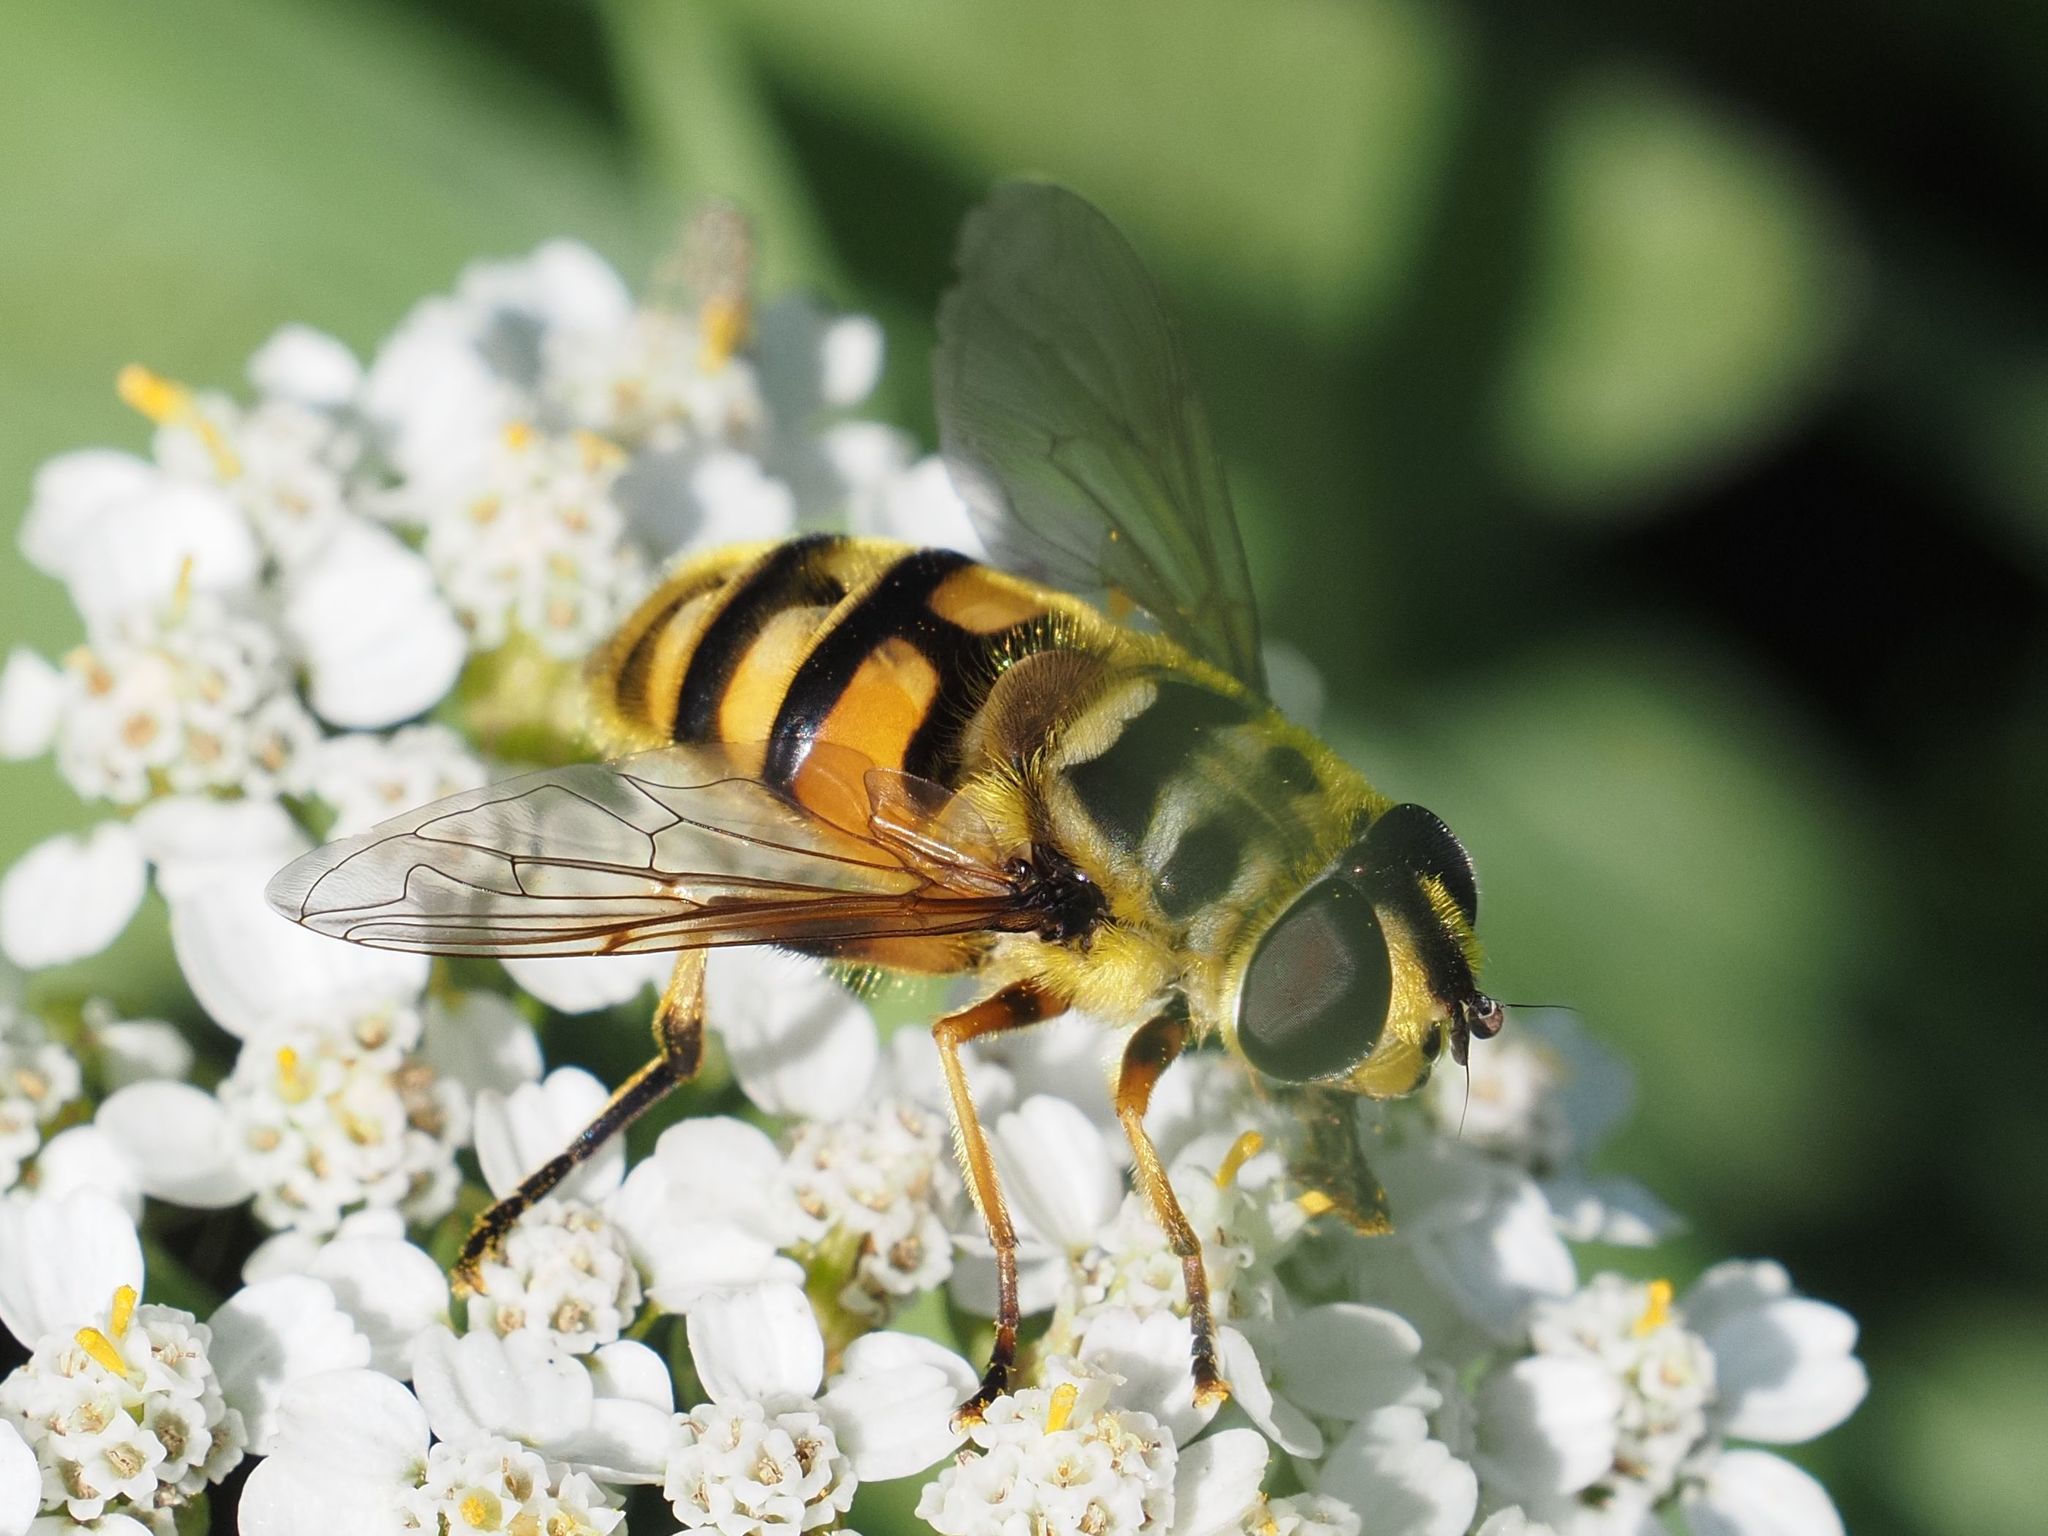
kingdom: Animalia
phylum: Arthropoda
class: Insecta
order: Diptera
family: Syrphidae
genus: Myathropa
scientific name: Myathropa florea
